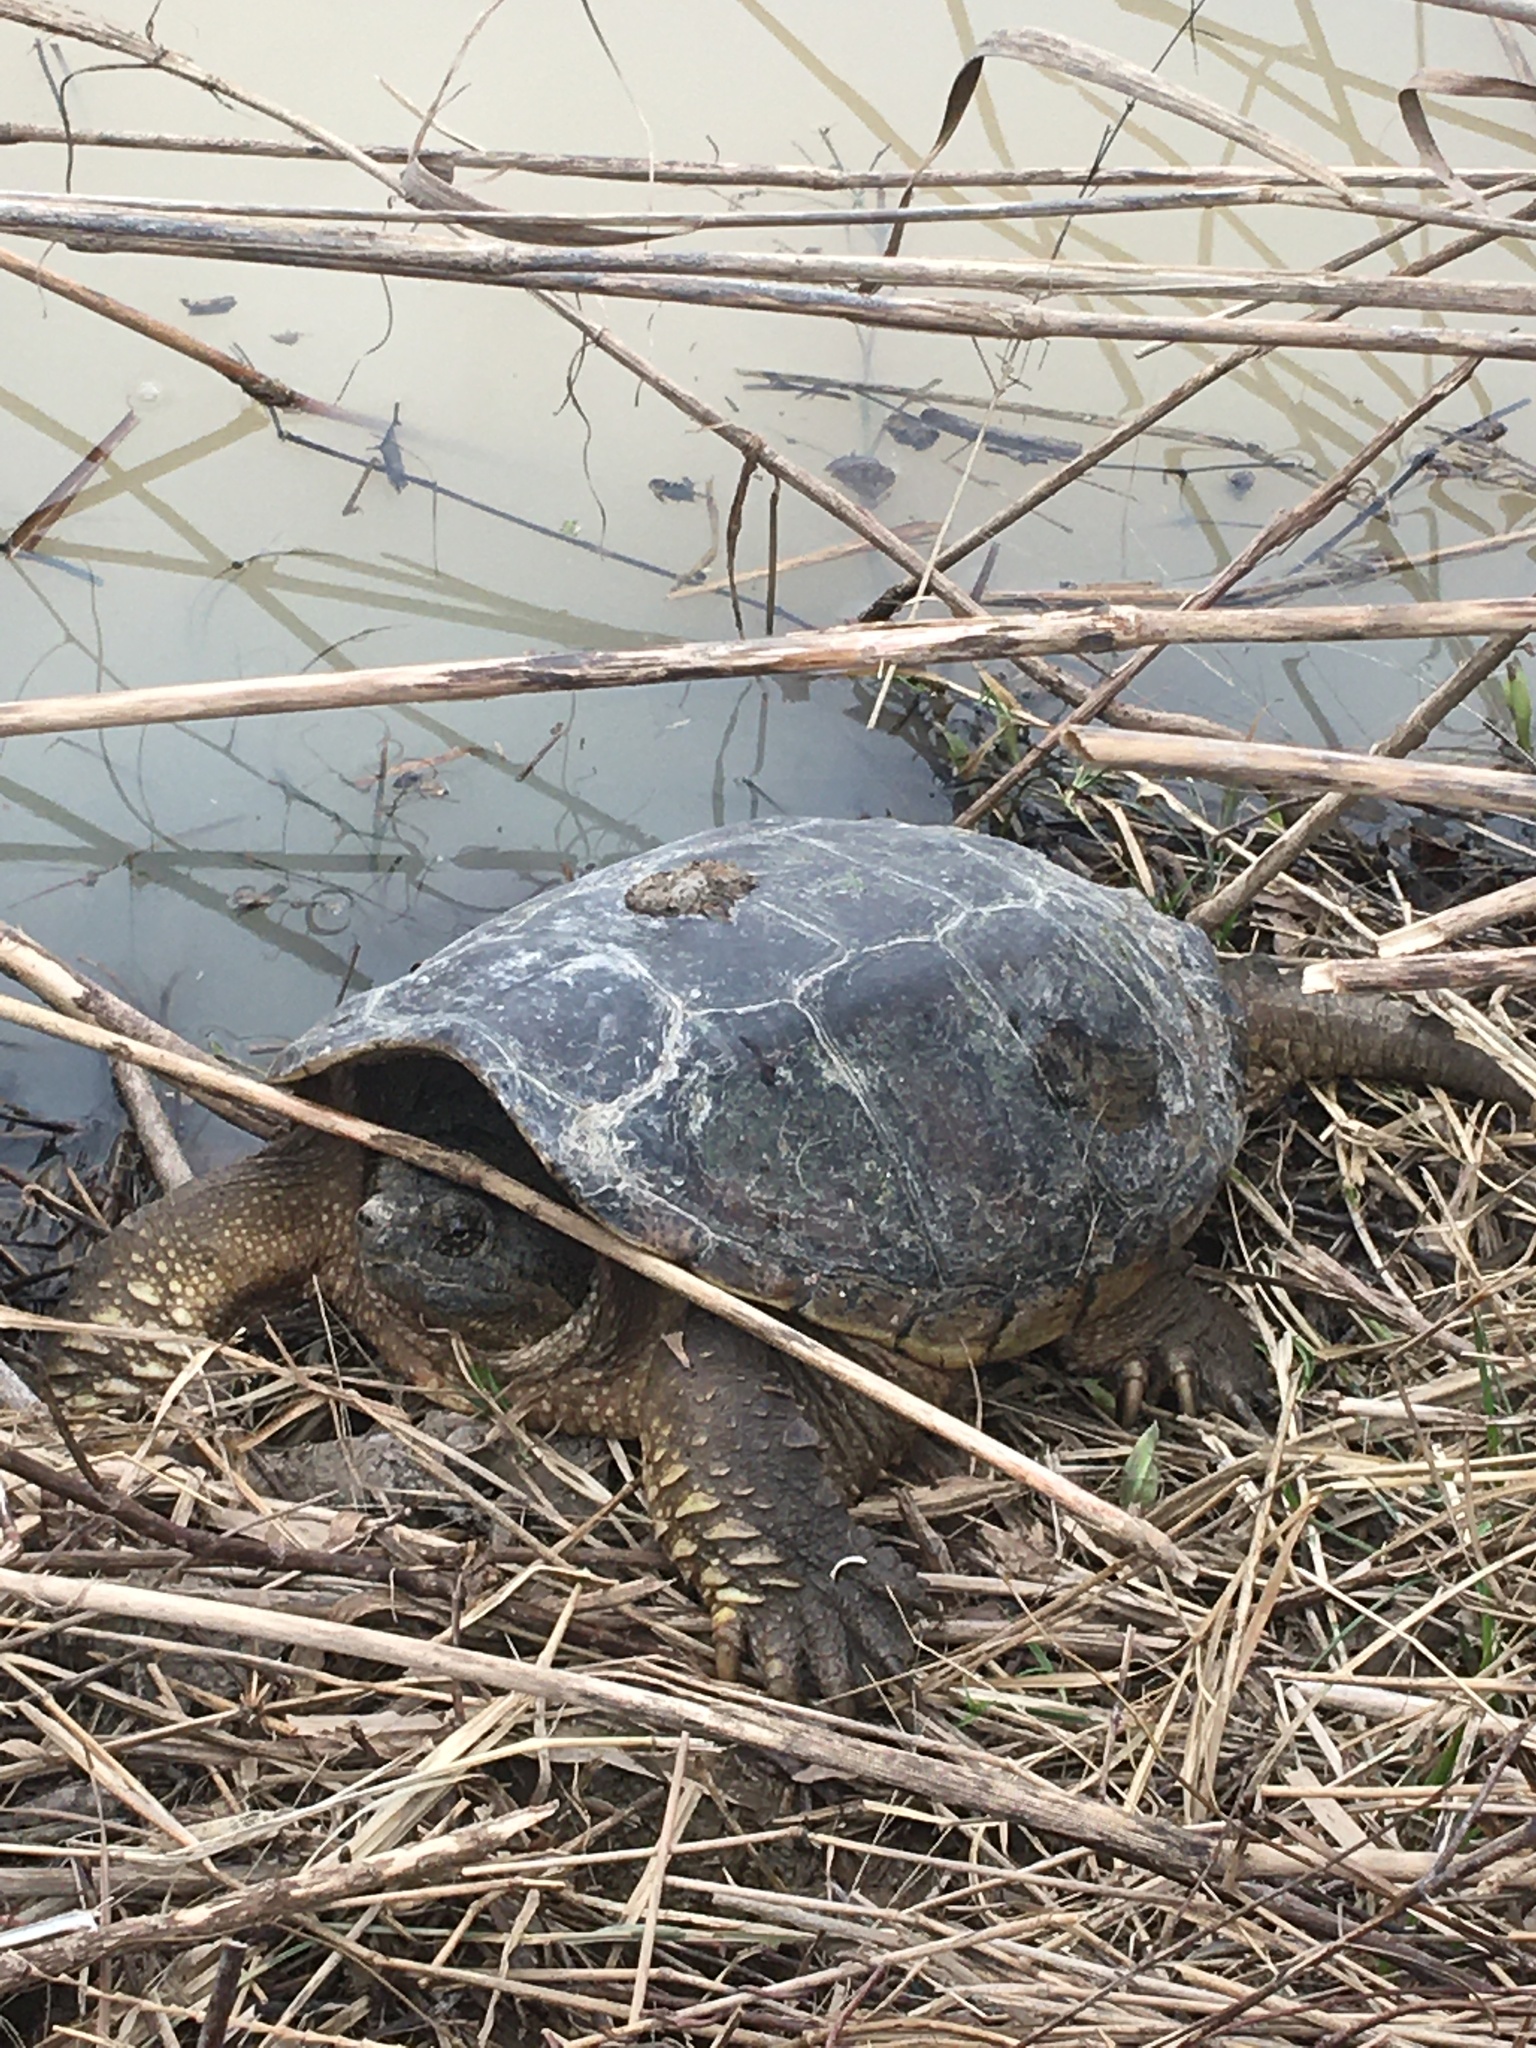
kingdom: Animalia
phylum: Chordata
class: Testudines
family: Chelydridae
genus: Chelydra
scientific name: Chelydra serpentina
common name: Common snapping turtle
